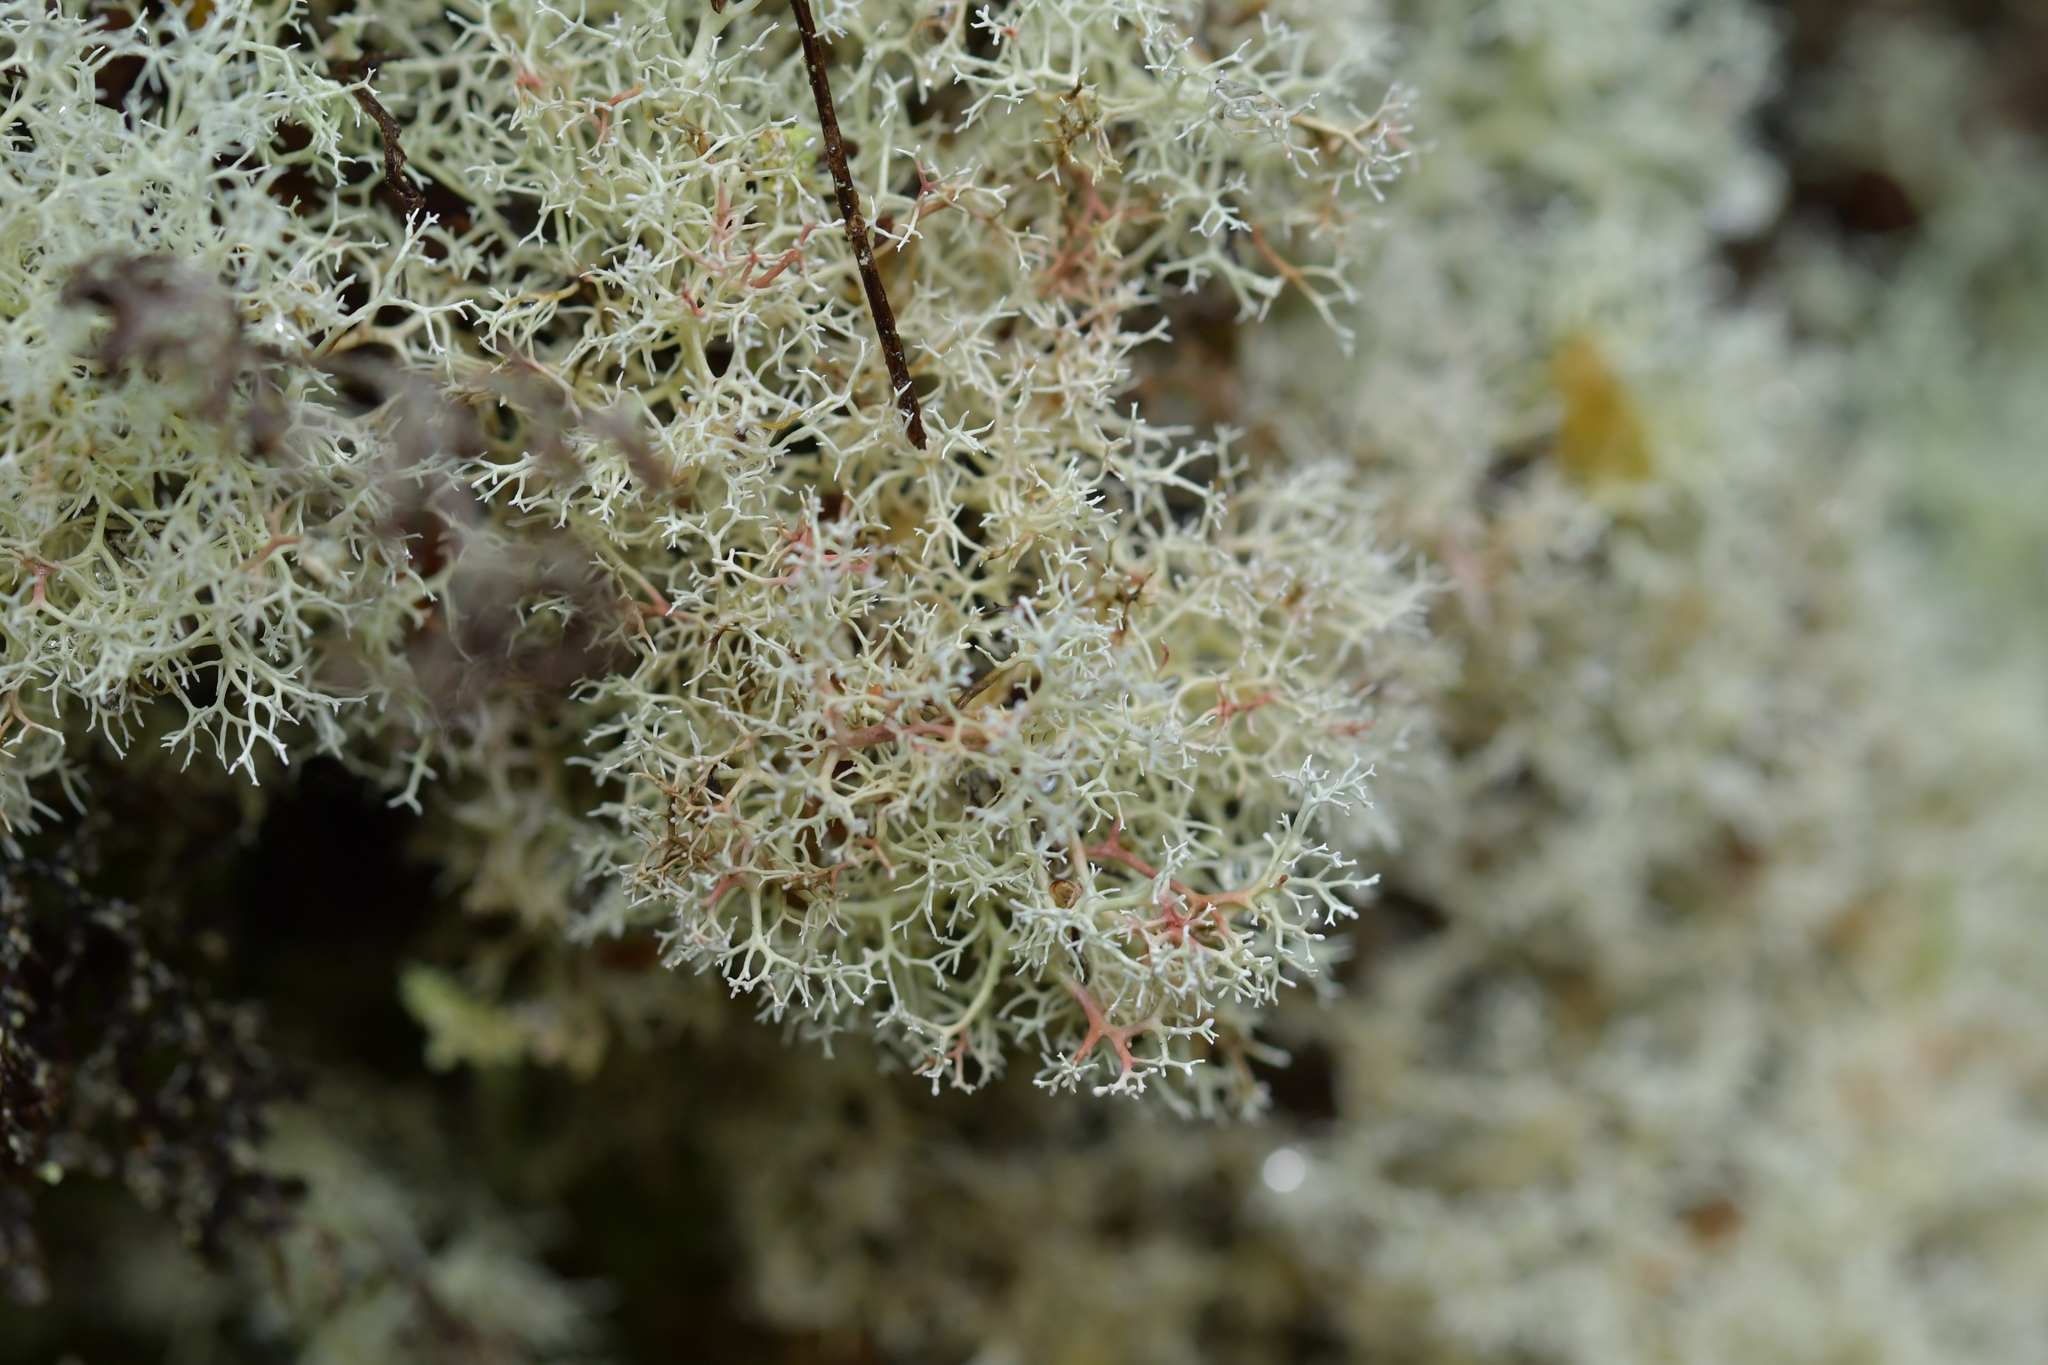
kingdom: Fungi
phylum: Ascomycota
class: Lecanoromycetes
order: Lecanorales
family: Cladoniaceae
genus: Cladonia
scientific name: Cladonia confusa
